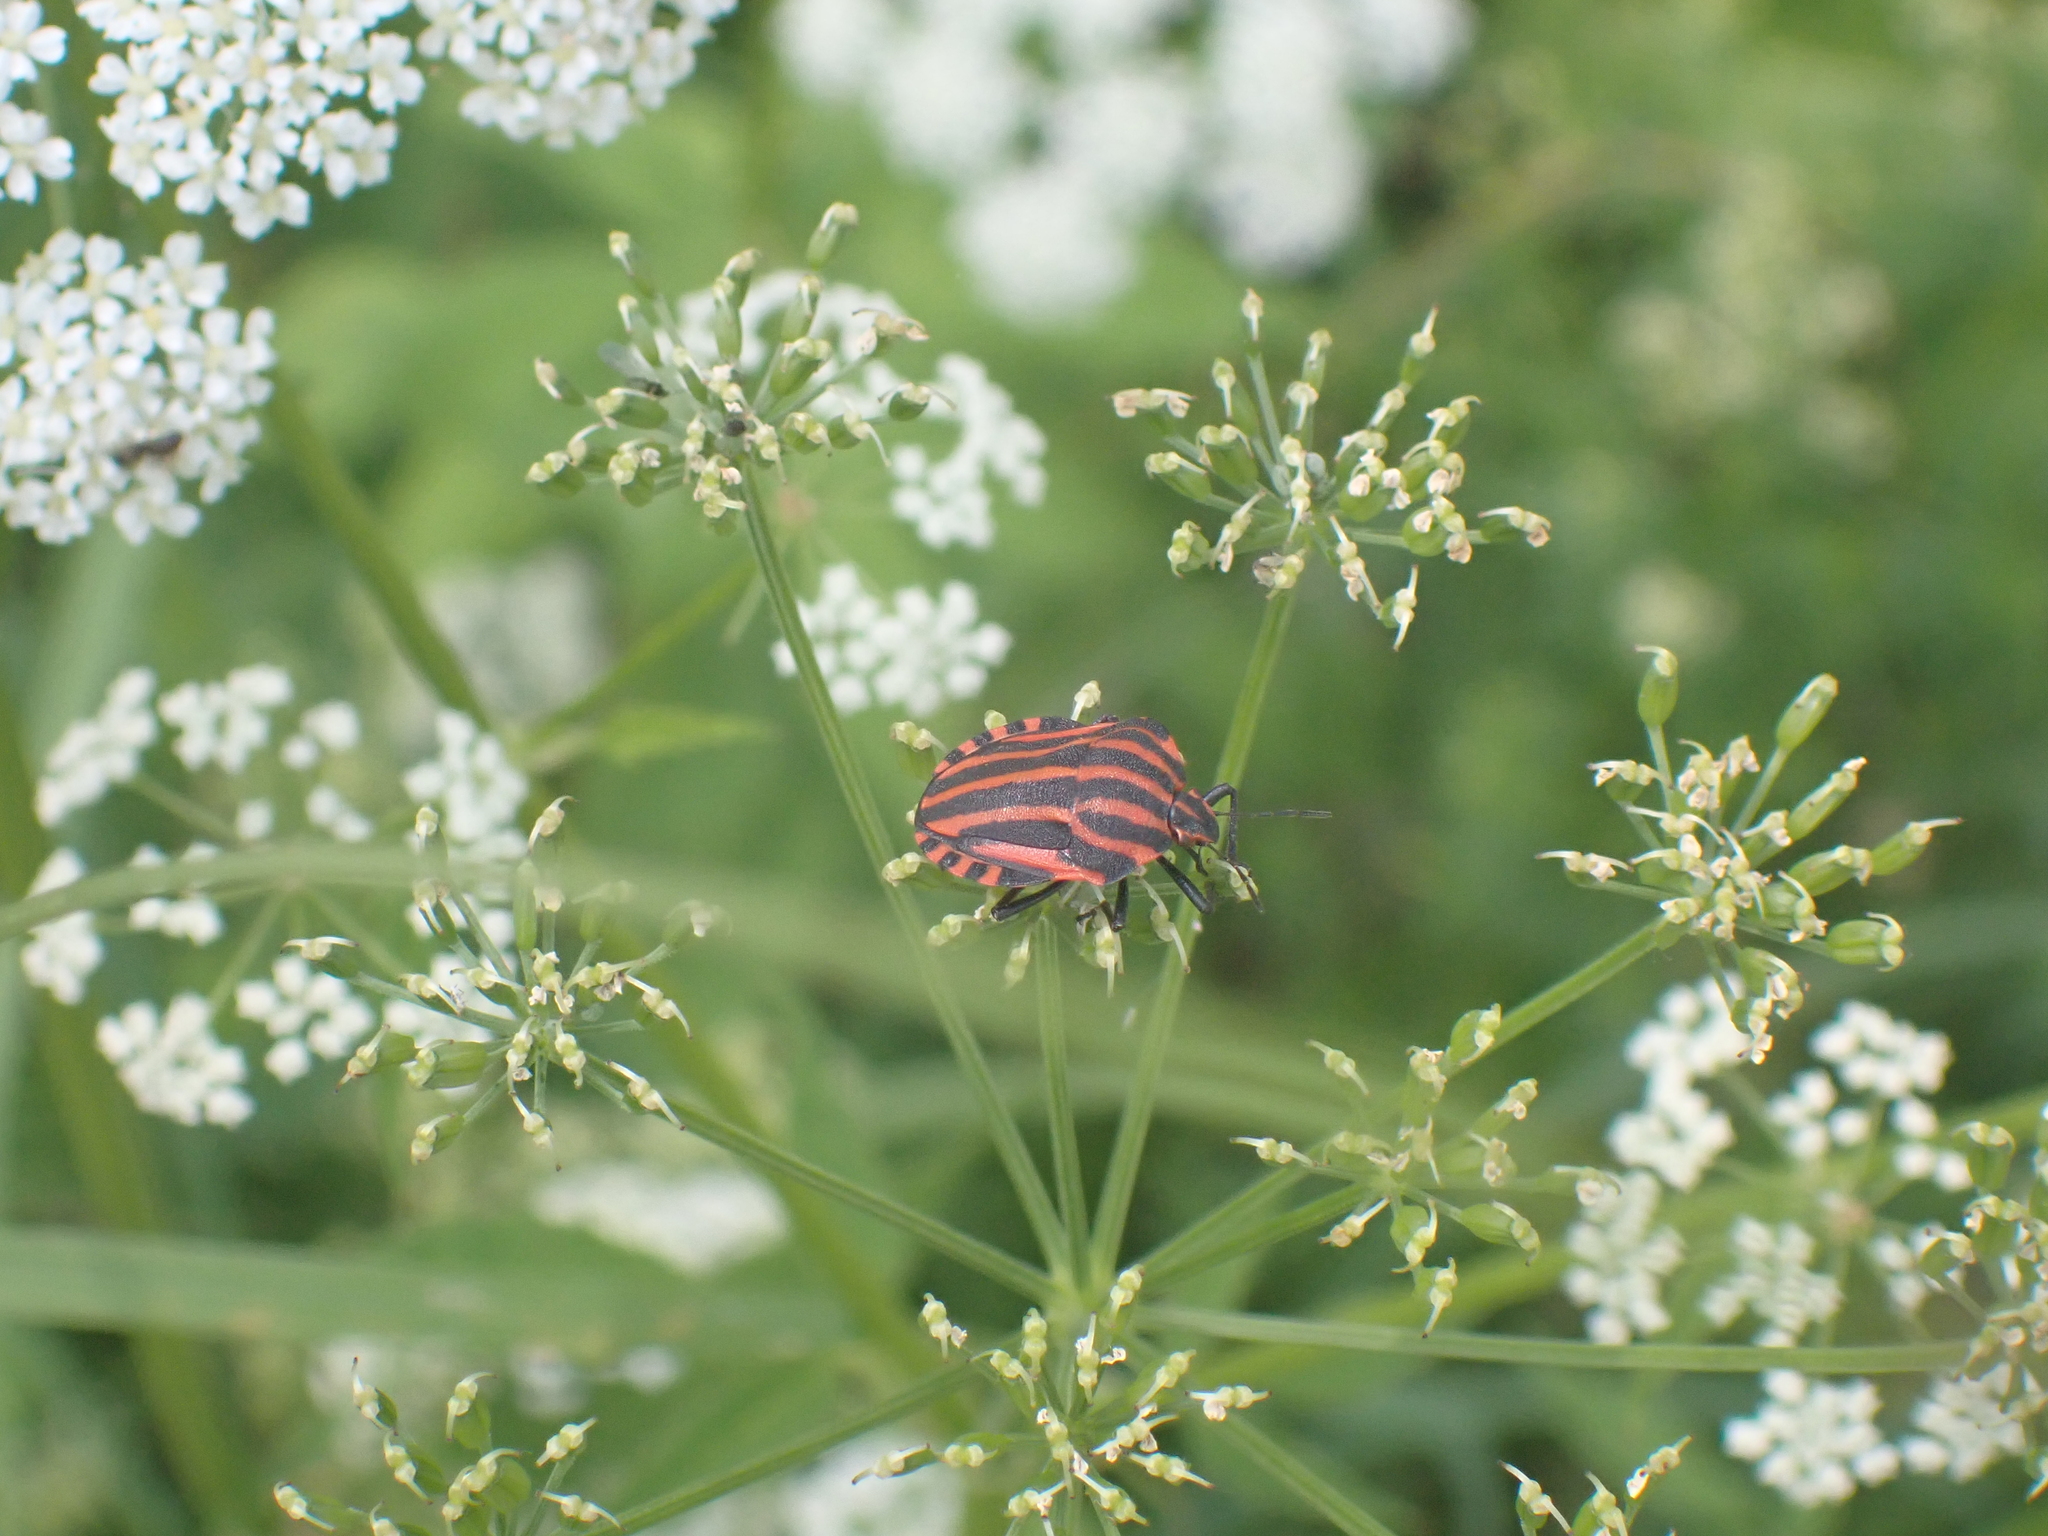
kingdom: Animalia
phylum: Arthropoda
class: Insecta
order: Hemiptera
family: Pentatomidae
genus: Graphosoma
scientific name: Graphosoma italicum
